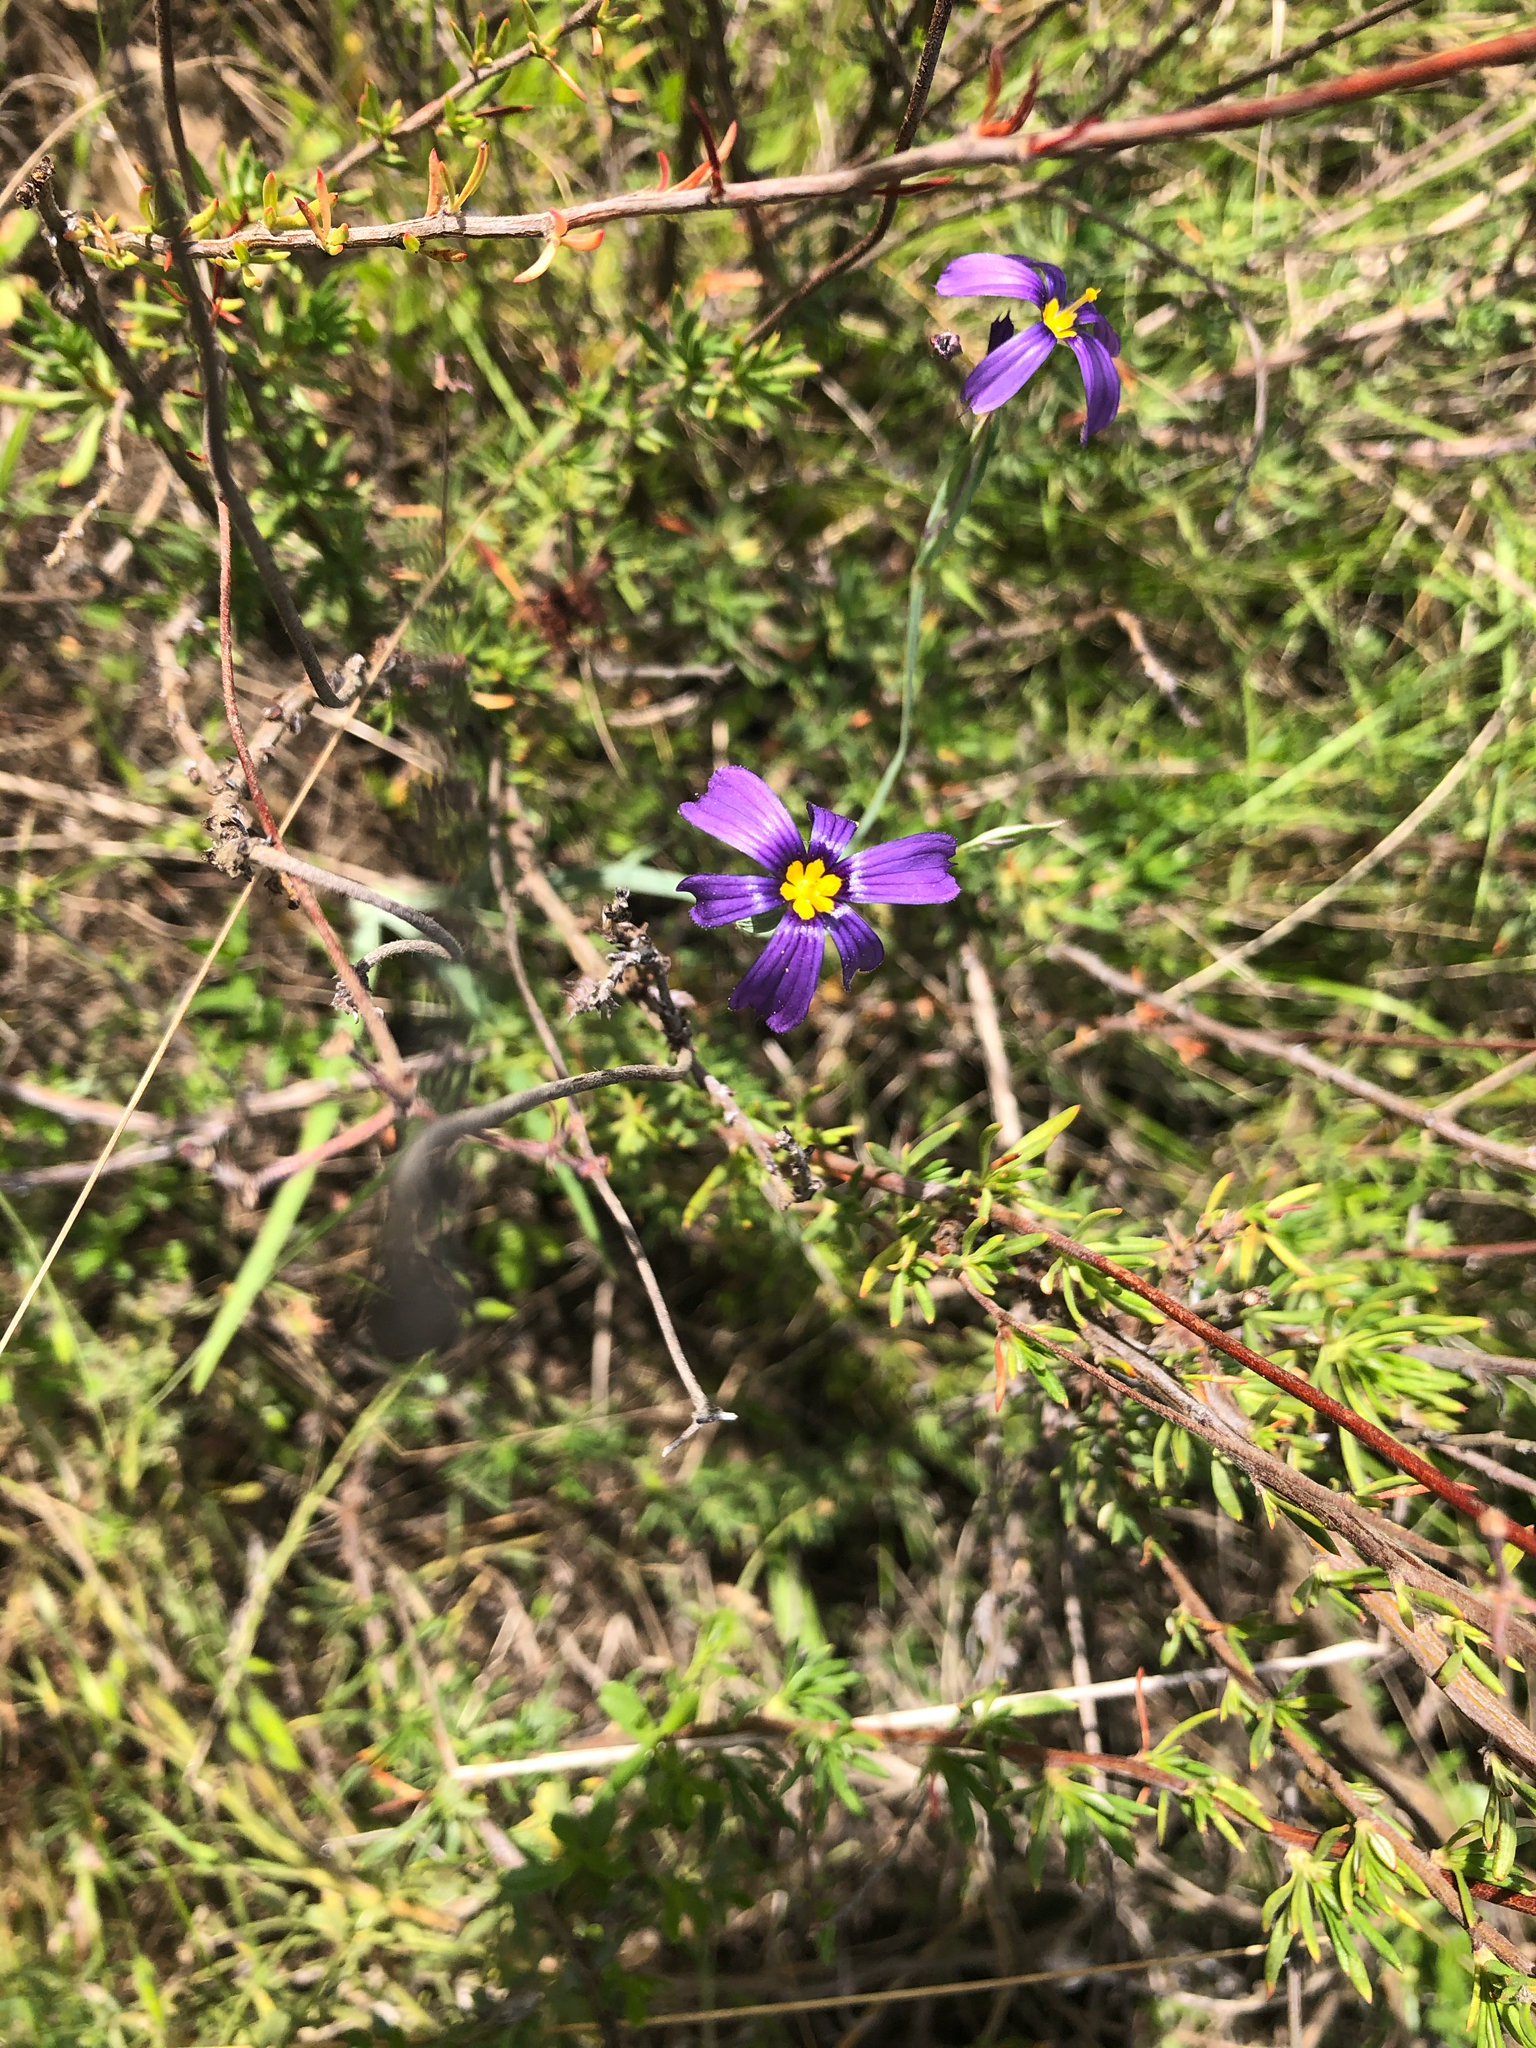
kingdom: Plantae
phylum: Tracheophyta
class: Liliopsida
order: Asparagales
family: Iridaceae
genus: Sisyrinchium
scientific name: Sisyrinchium bellum
